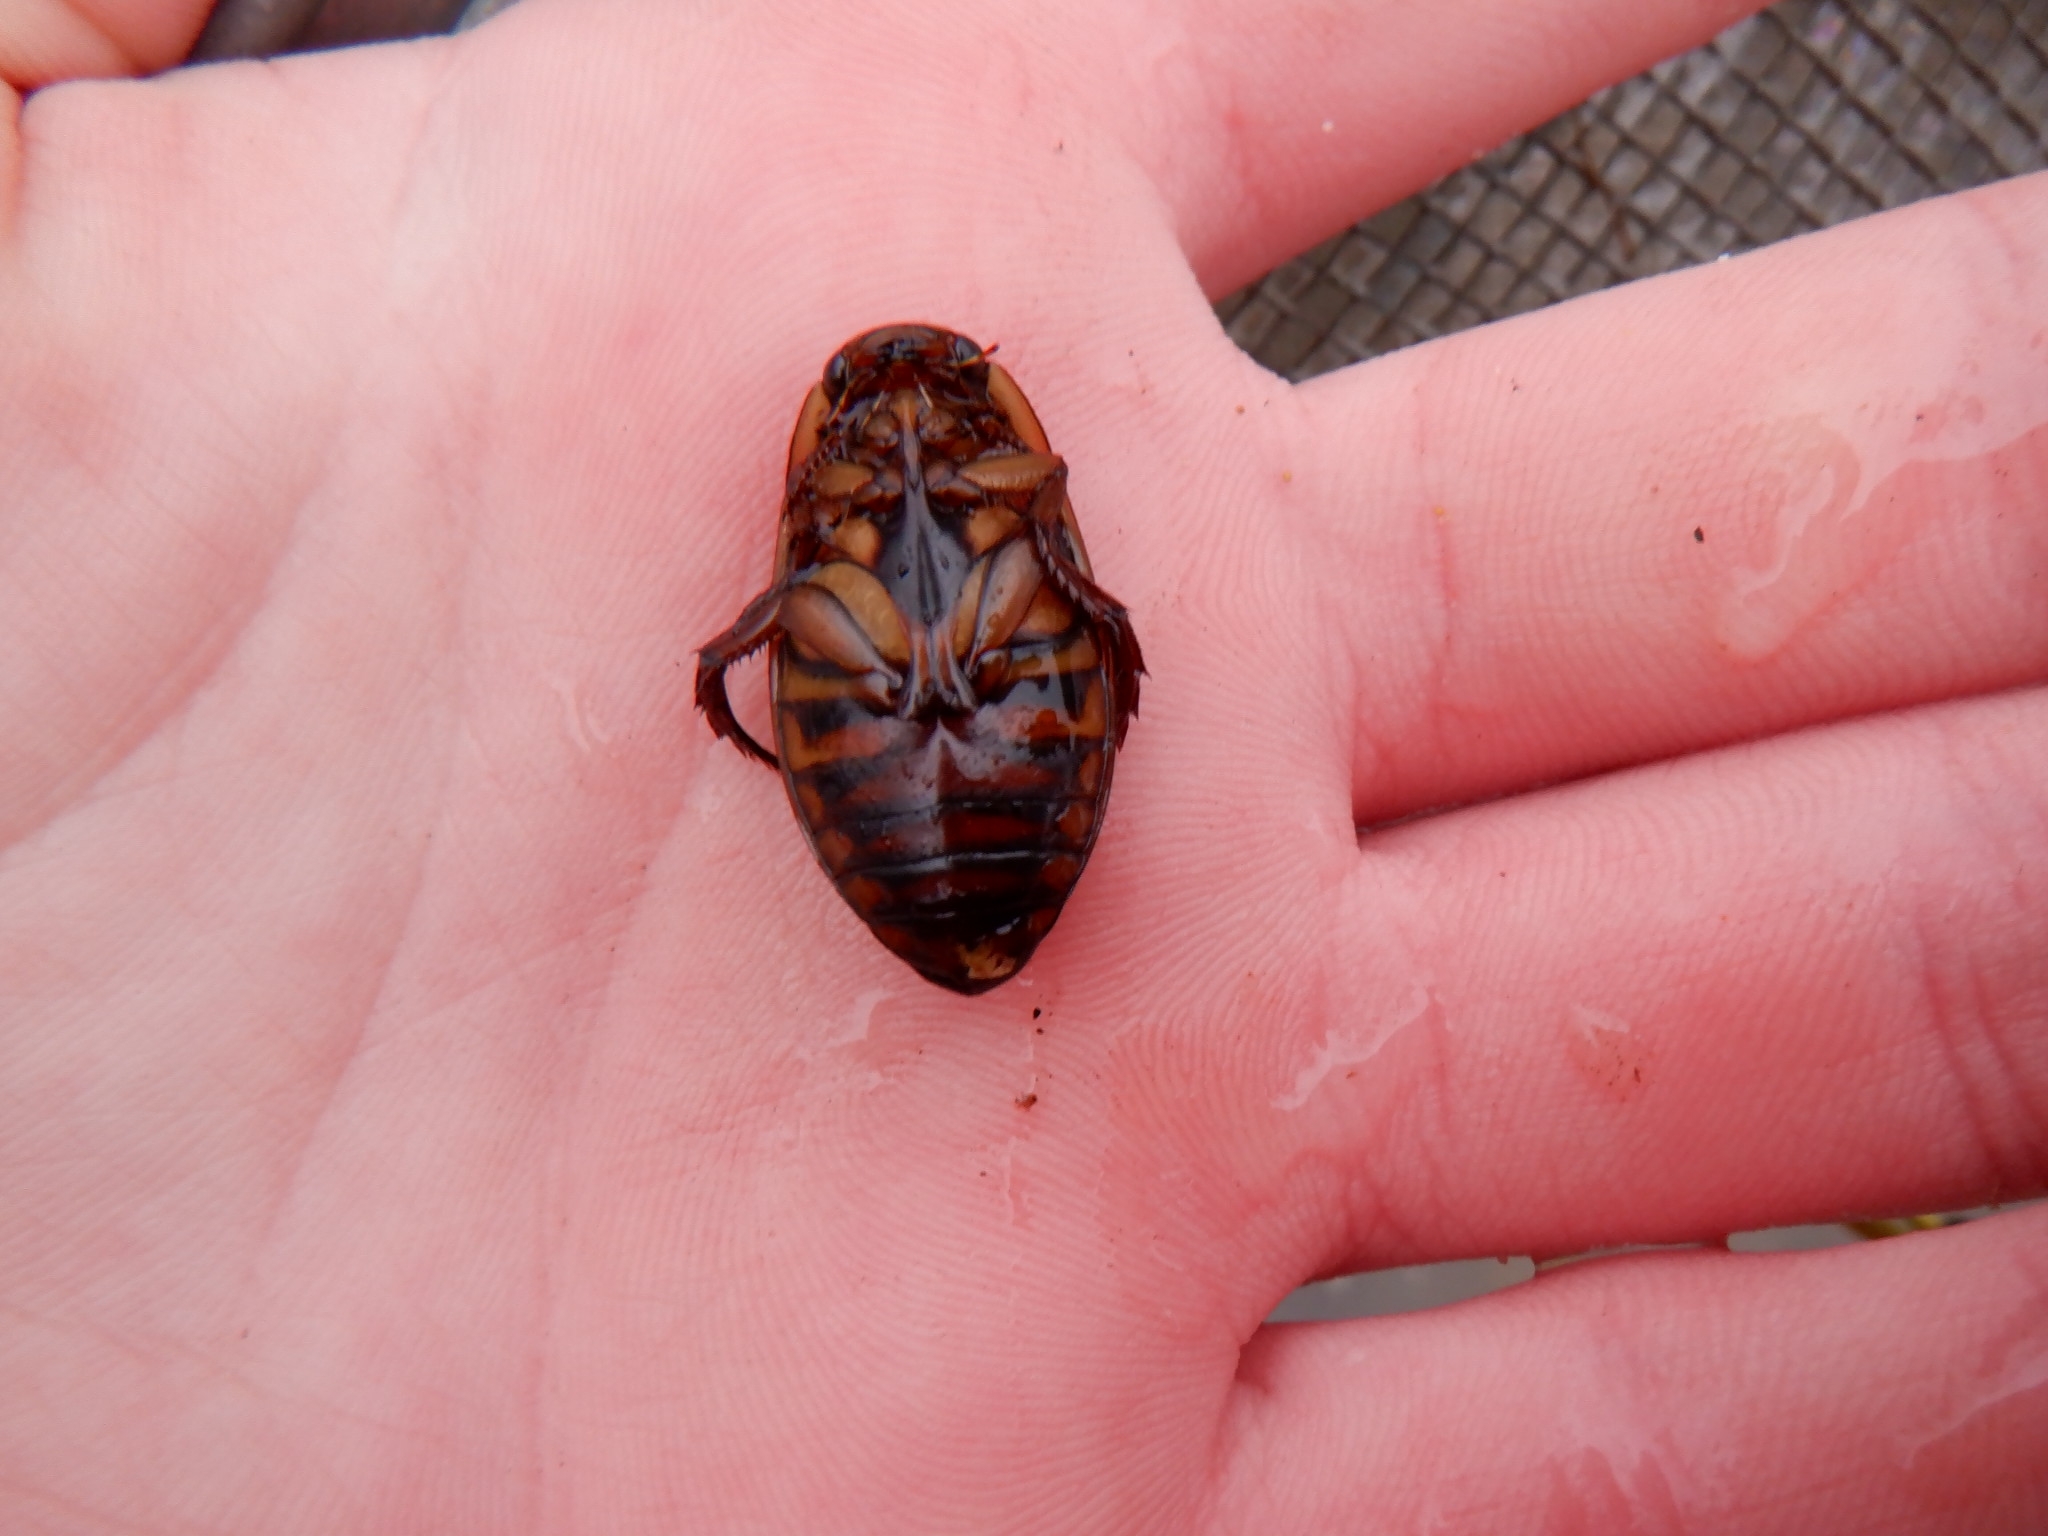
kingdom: Animalia
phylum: Arthropoda
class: Insecta
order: Coleoptera
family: Dytiscidae
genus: Dytiscus
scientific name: Dytiscus fasciventris
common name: Understriped diving beetle
